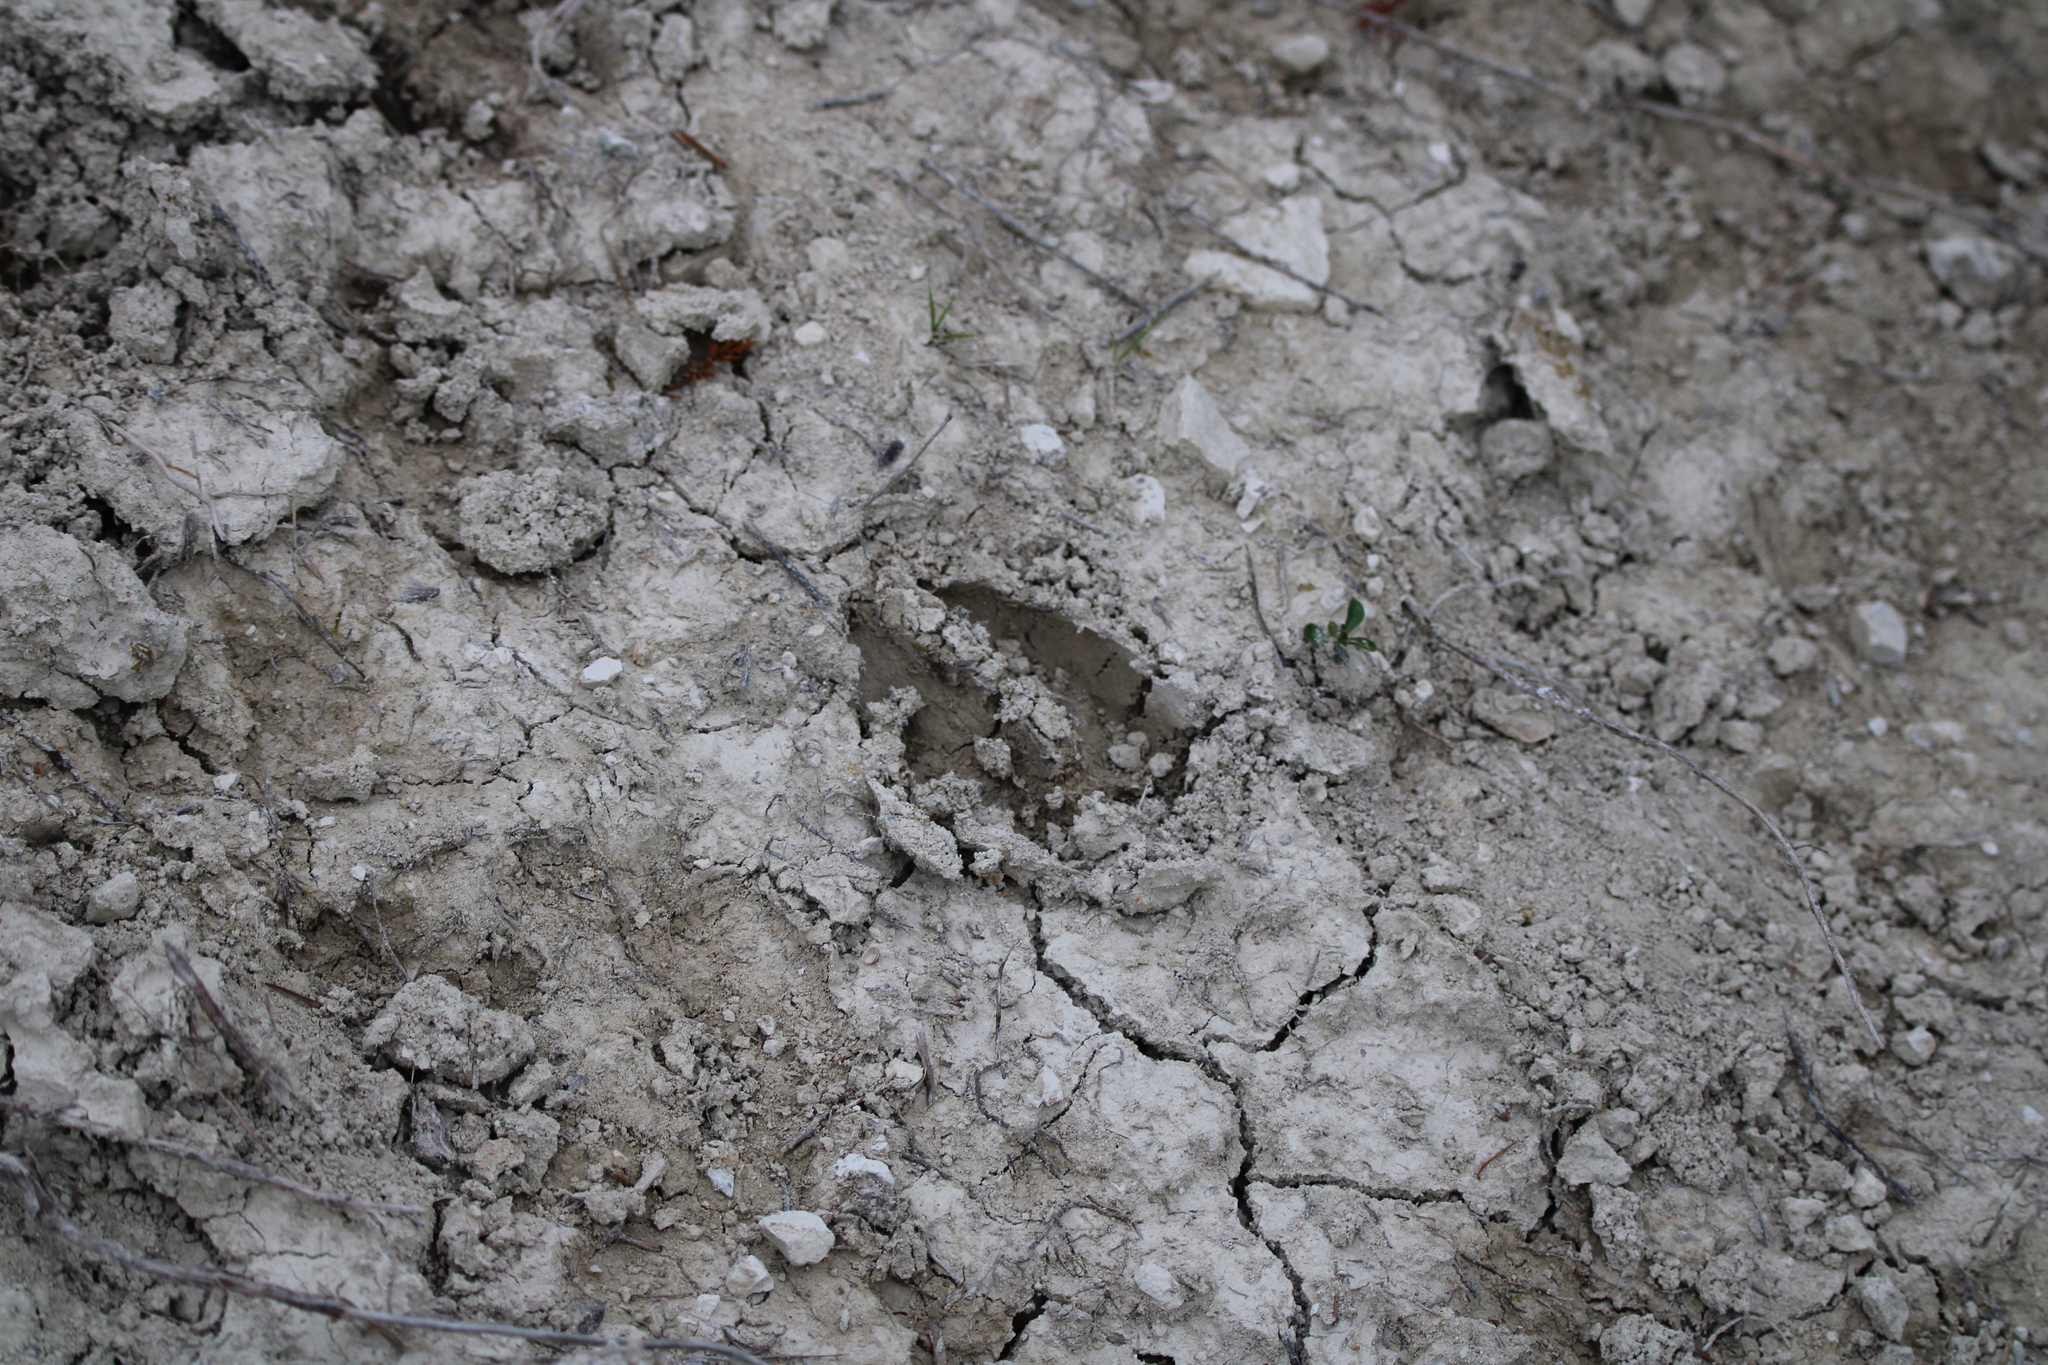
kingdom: Animalia
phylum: Chordata
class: Mammalia
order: Artiodactyla
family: Cervidae
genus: Capreolus
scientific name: Capreolus capreolus
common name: Western roe deer
